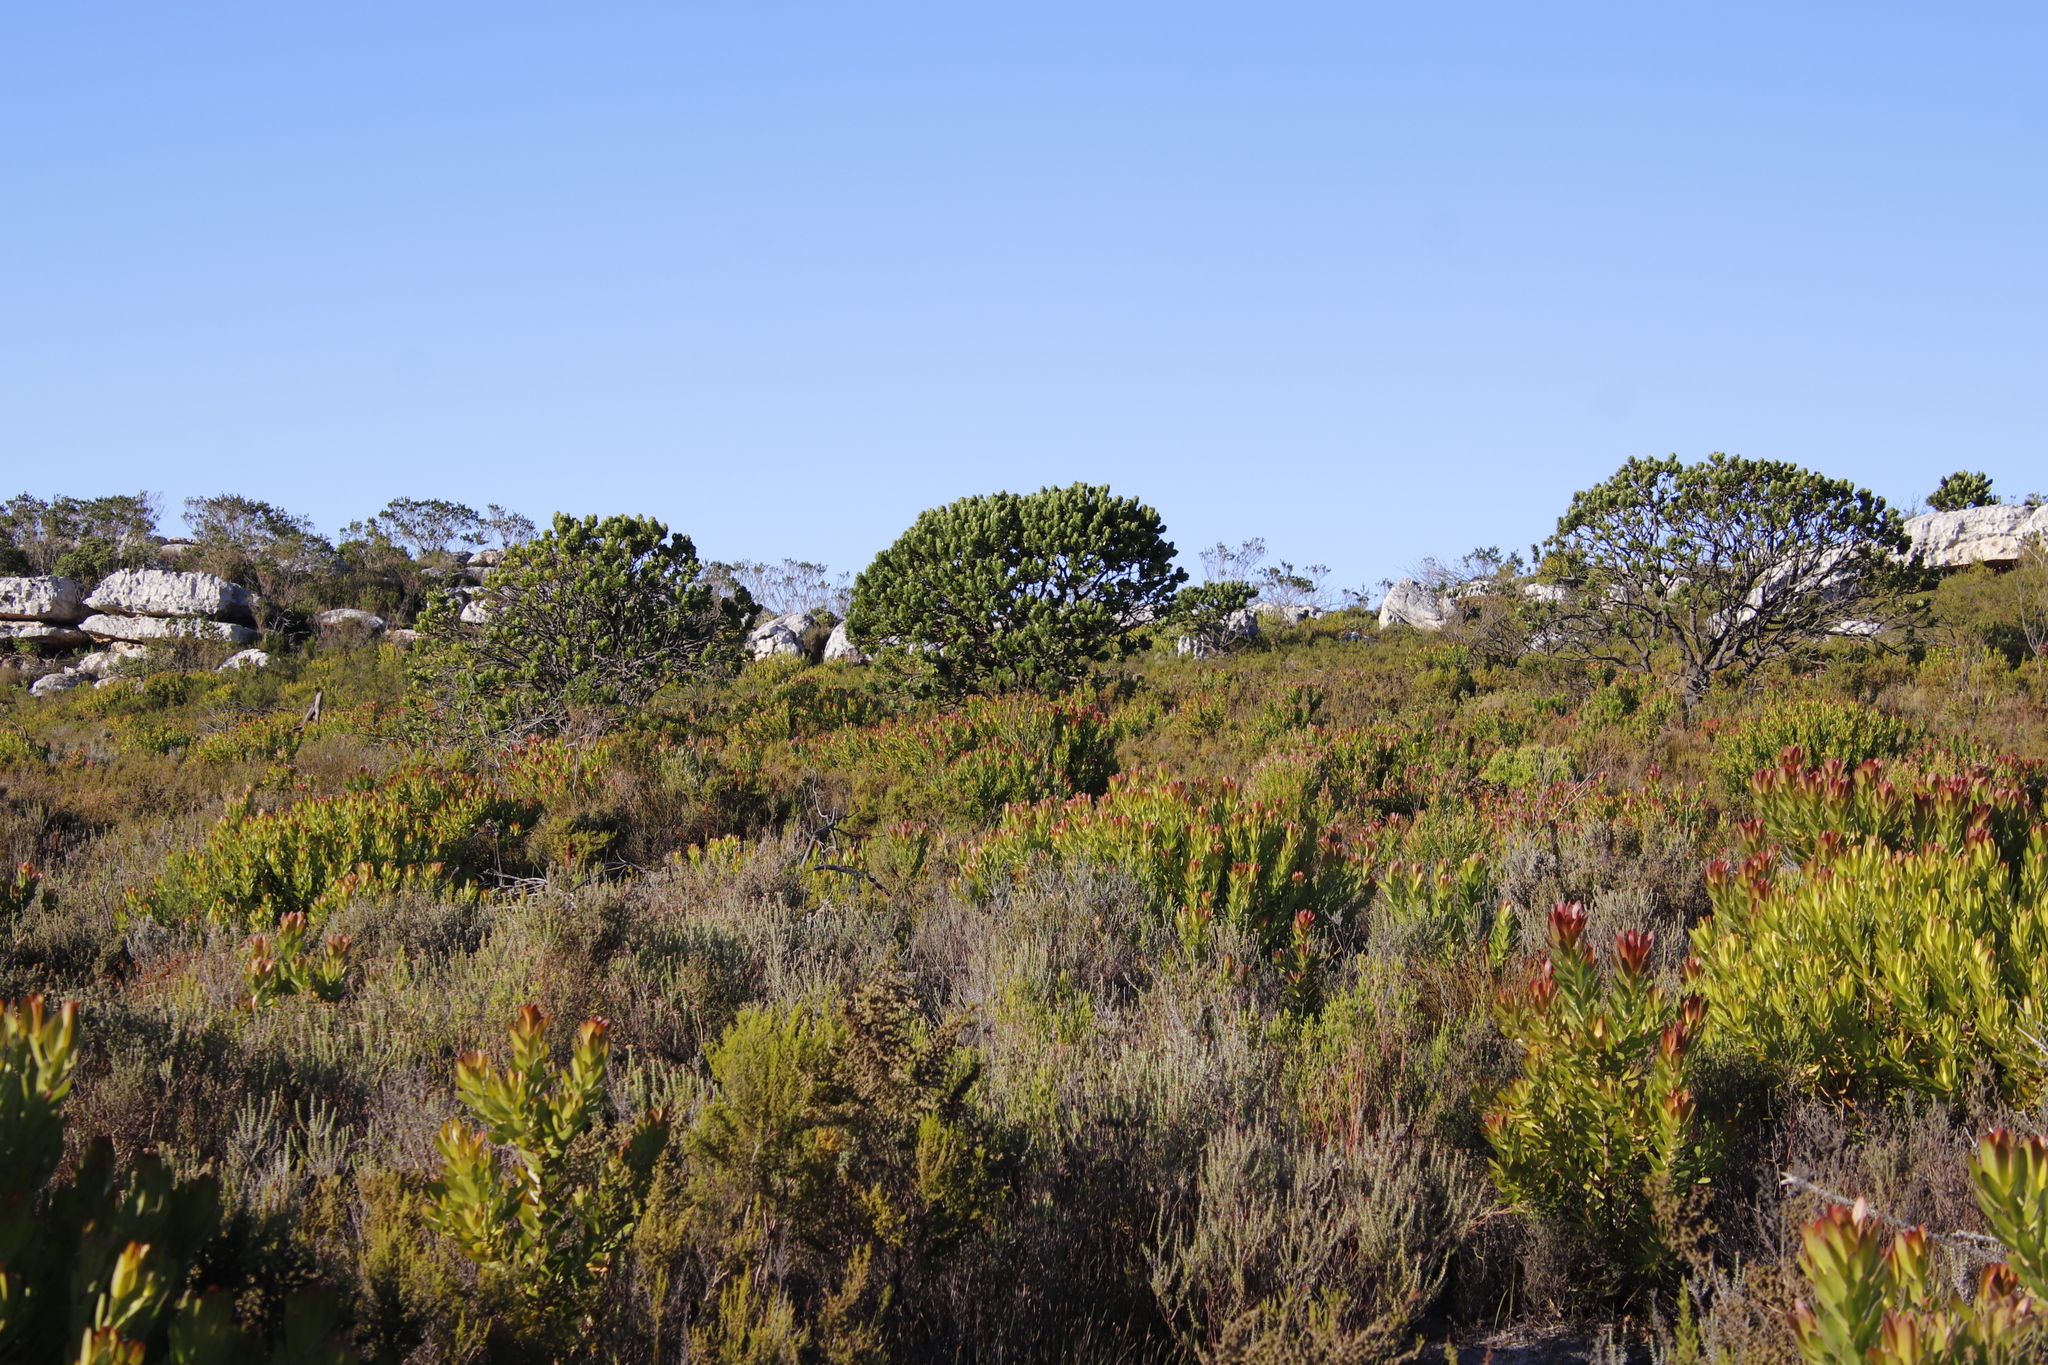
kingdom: Plantae
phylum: Tracheophyta
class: Magnoliopsida
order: Proteales
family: Proteaceae
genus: Leucospermum
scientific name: Leucospermum conocarpodendron
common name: Tree pincushion
